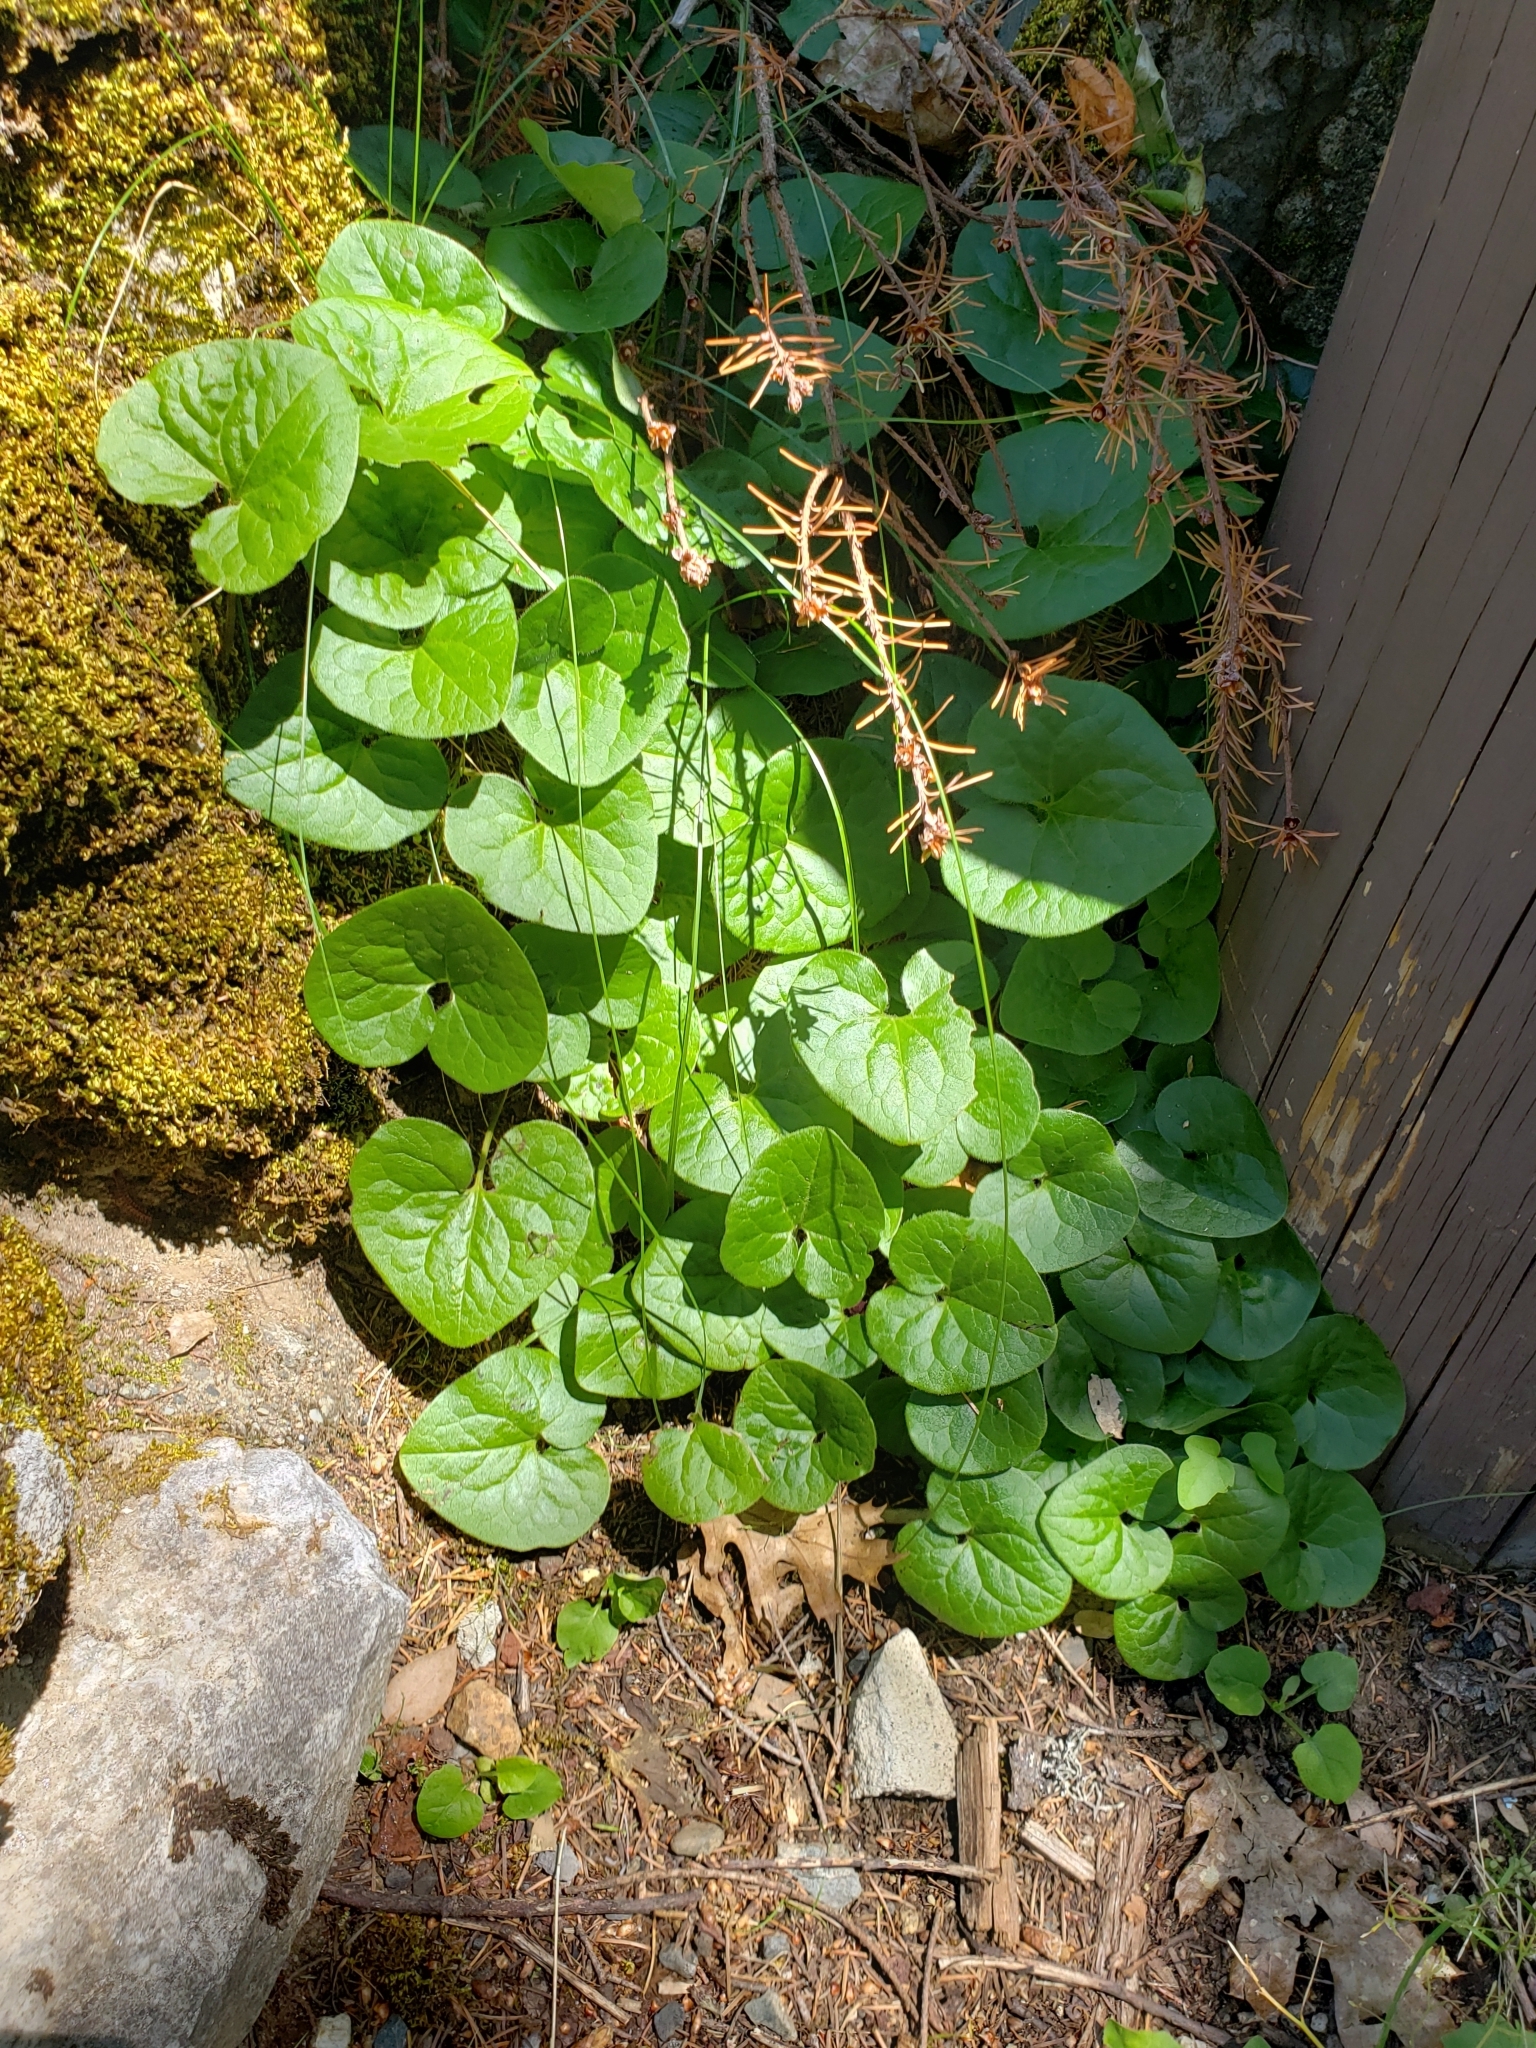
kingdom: Plantae
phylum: Tracheophyta
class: Magnoliopsida
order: Piperales
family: Aristolochiaceae
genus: Asarum
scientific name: Asarum caudatum
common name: Wild ginger
